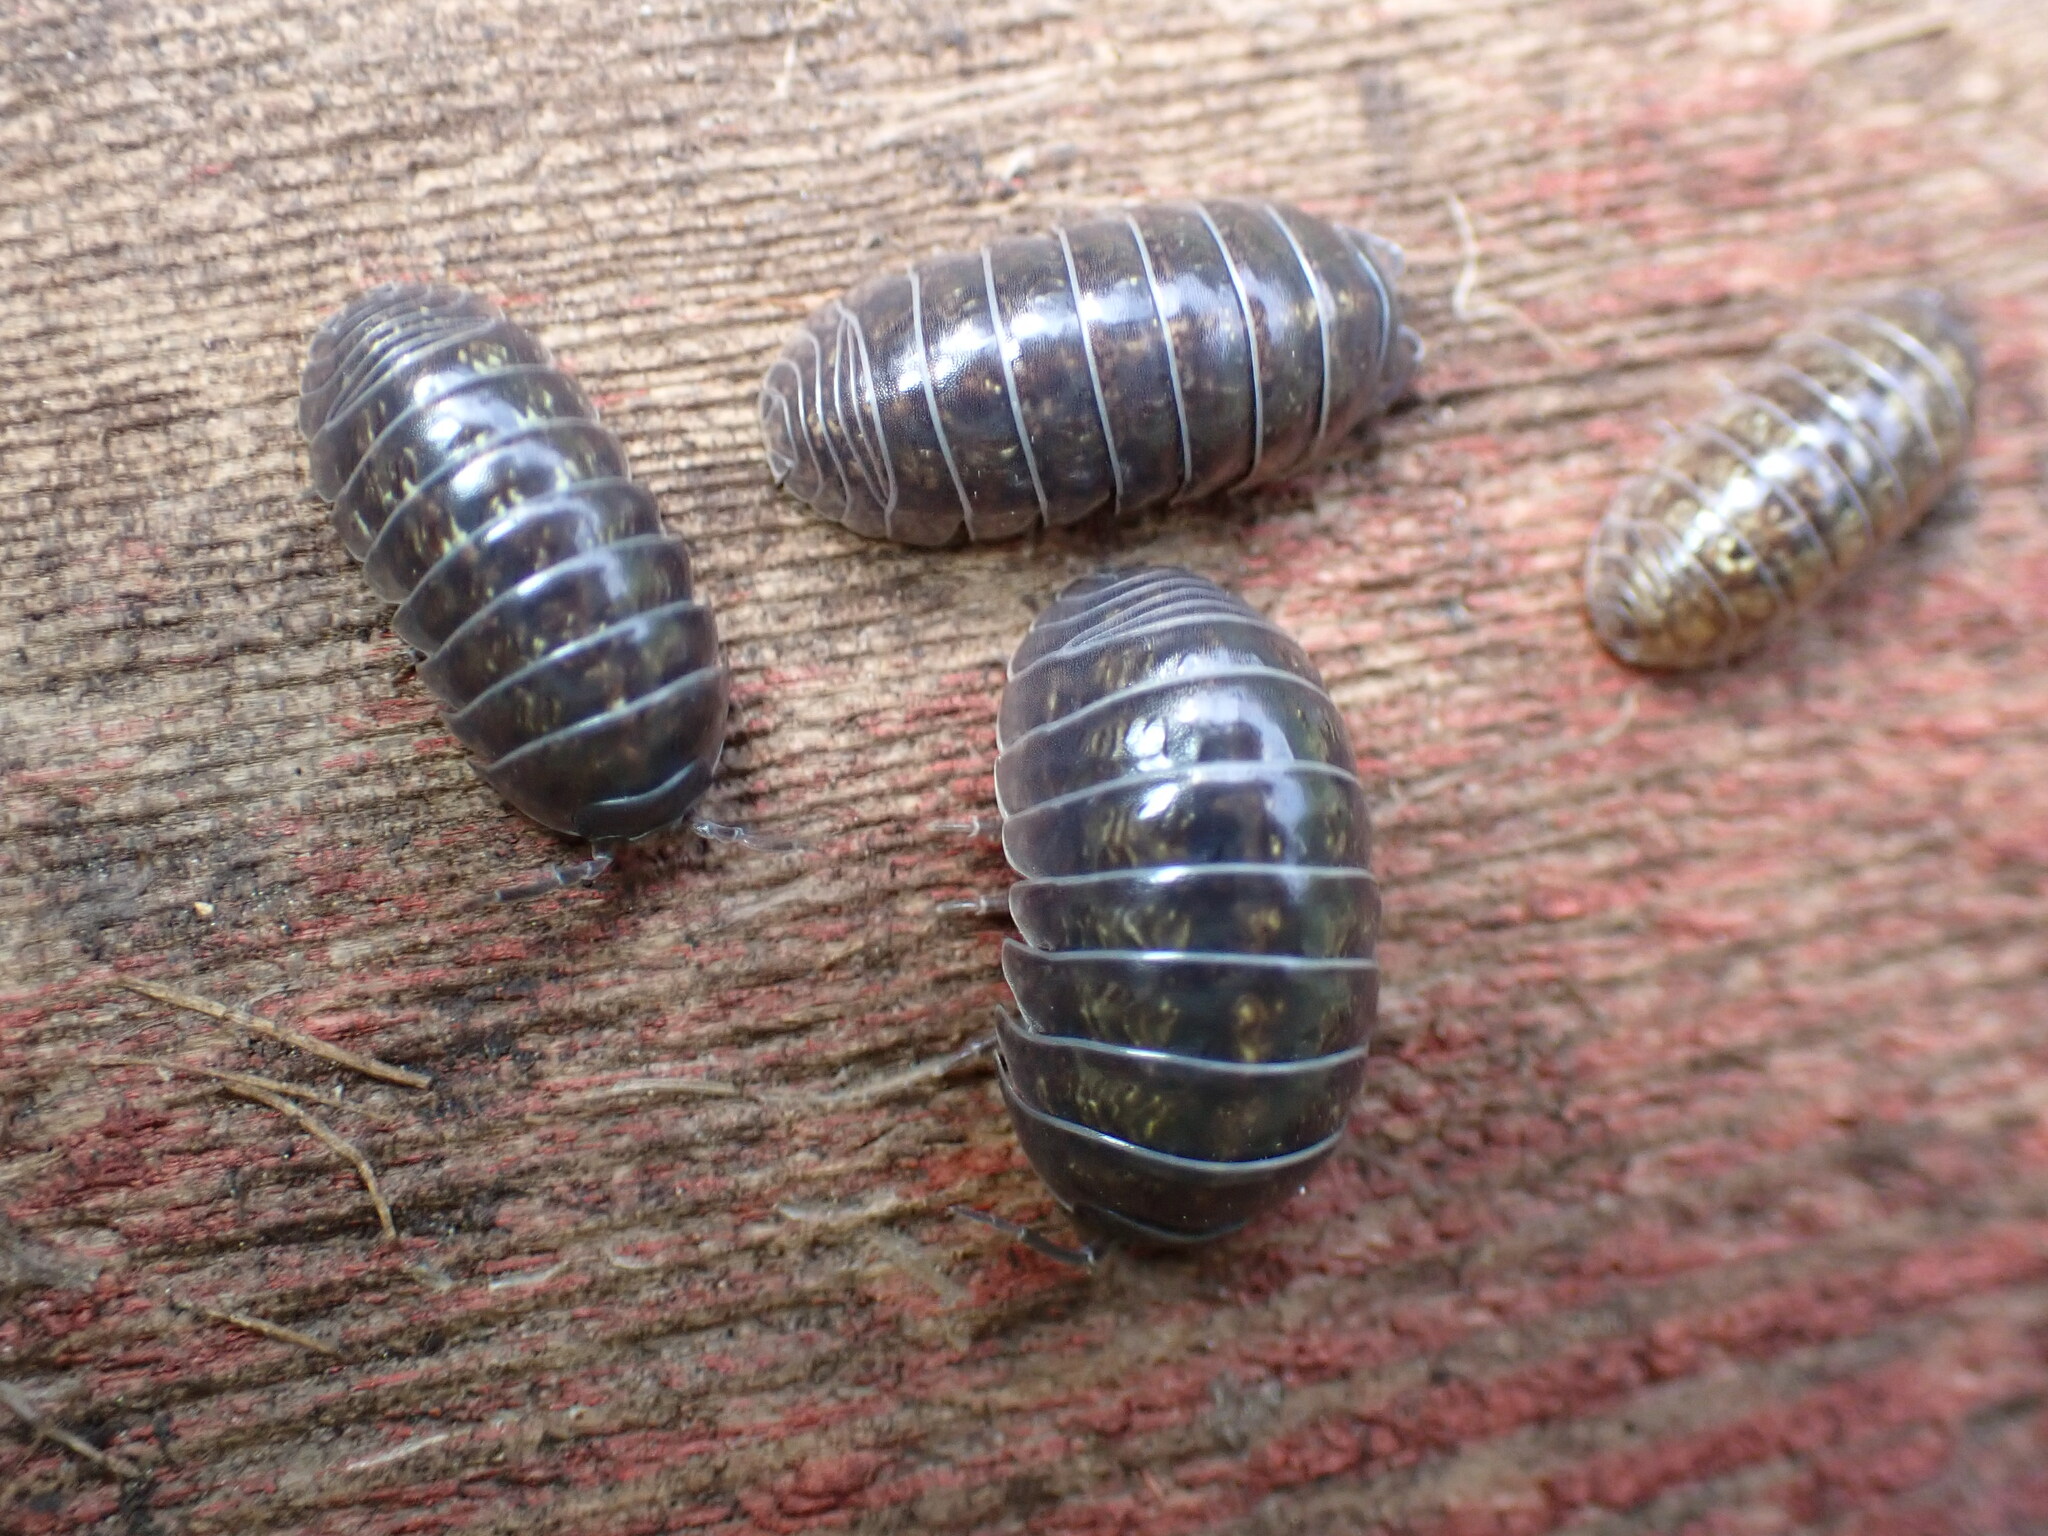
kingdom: Animalia
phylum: Arthropoda
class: Malacostraca
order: Isopoda
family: Armadillidiidae
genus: Armadillidium
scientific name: Armadillidium vulgare
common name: Common pill woodlouse
